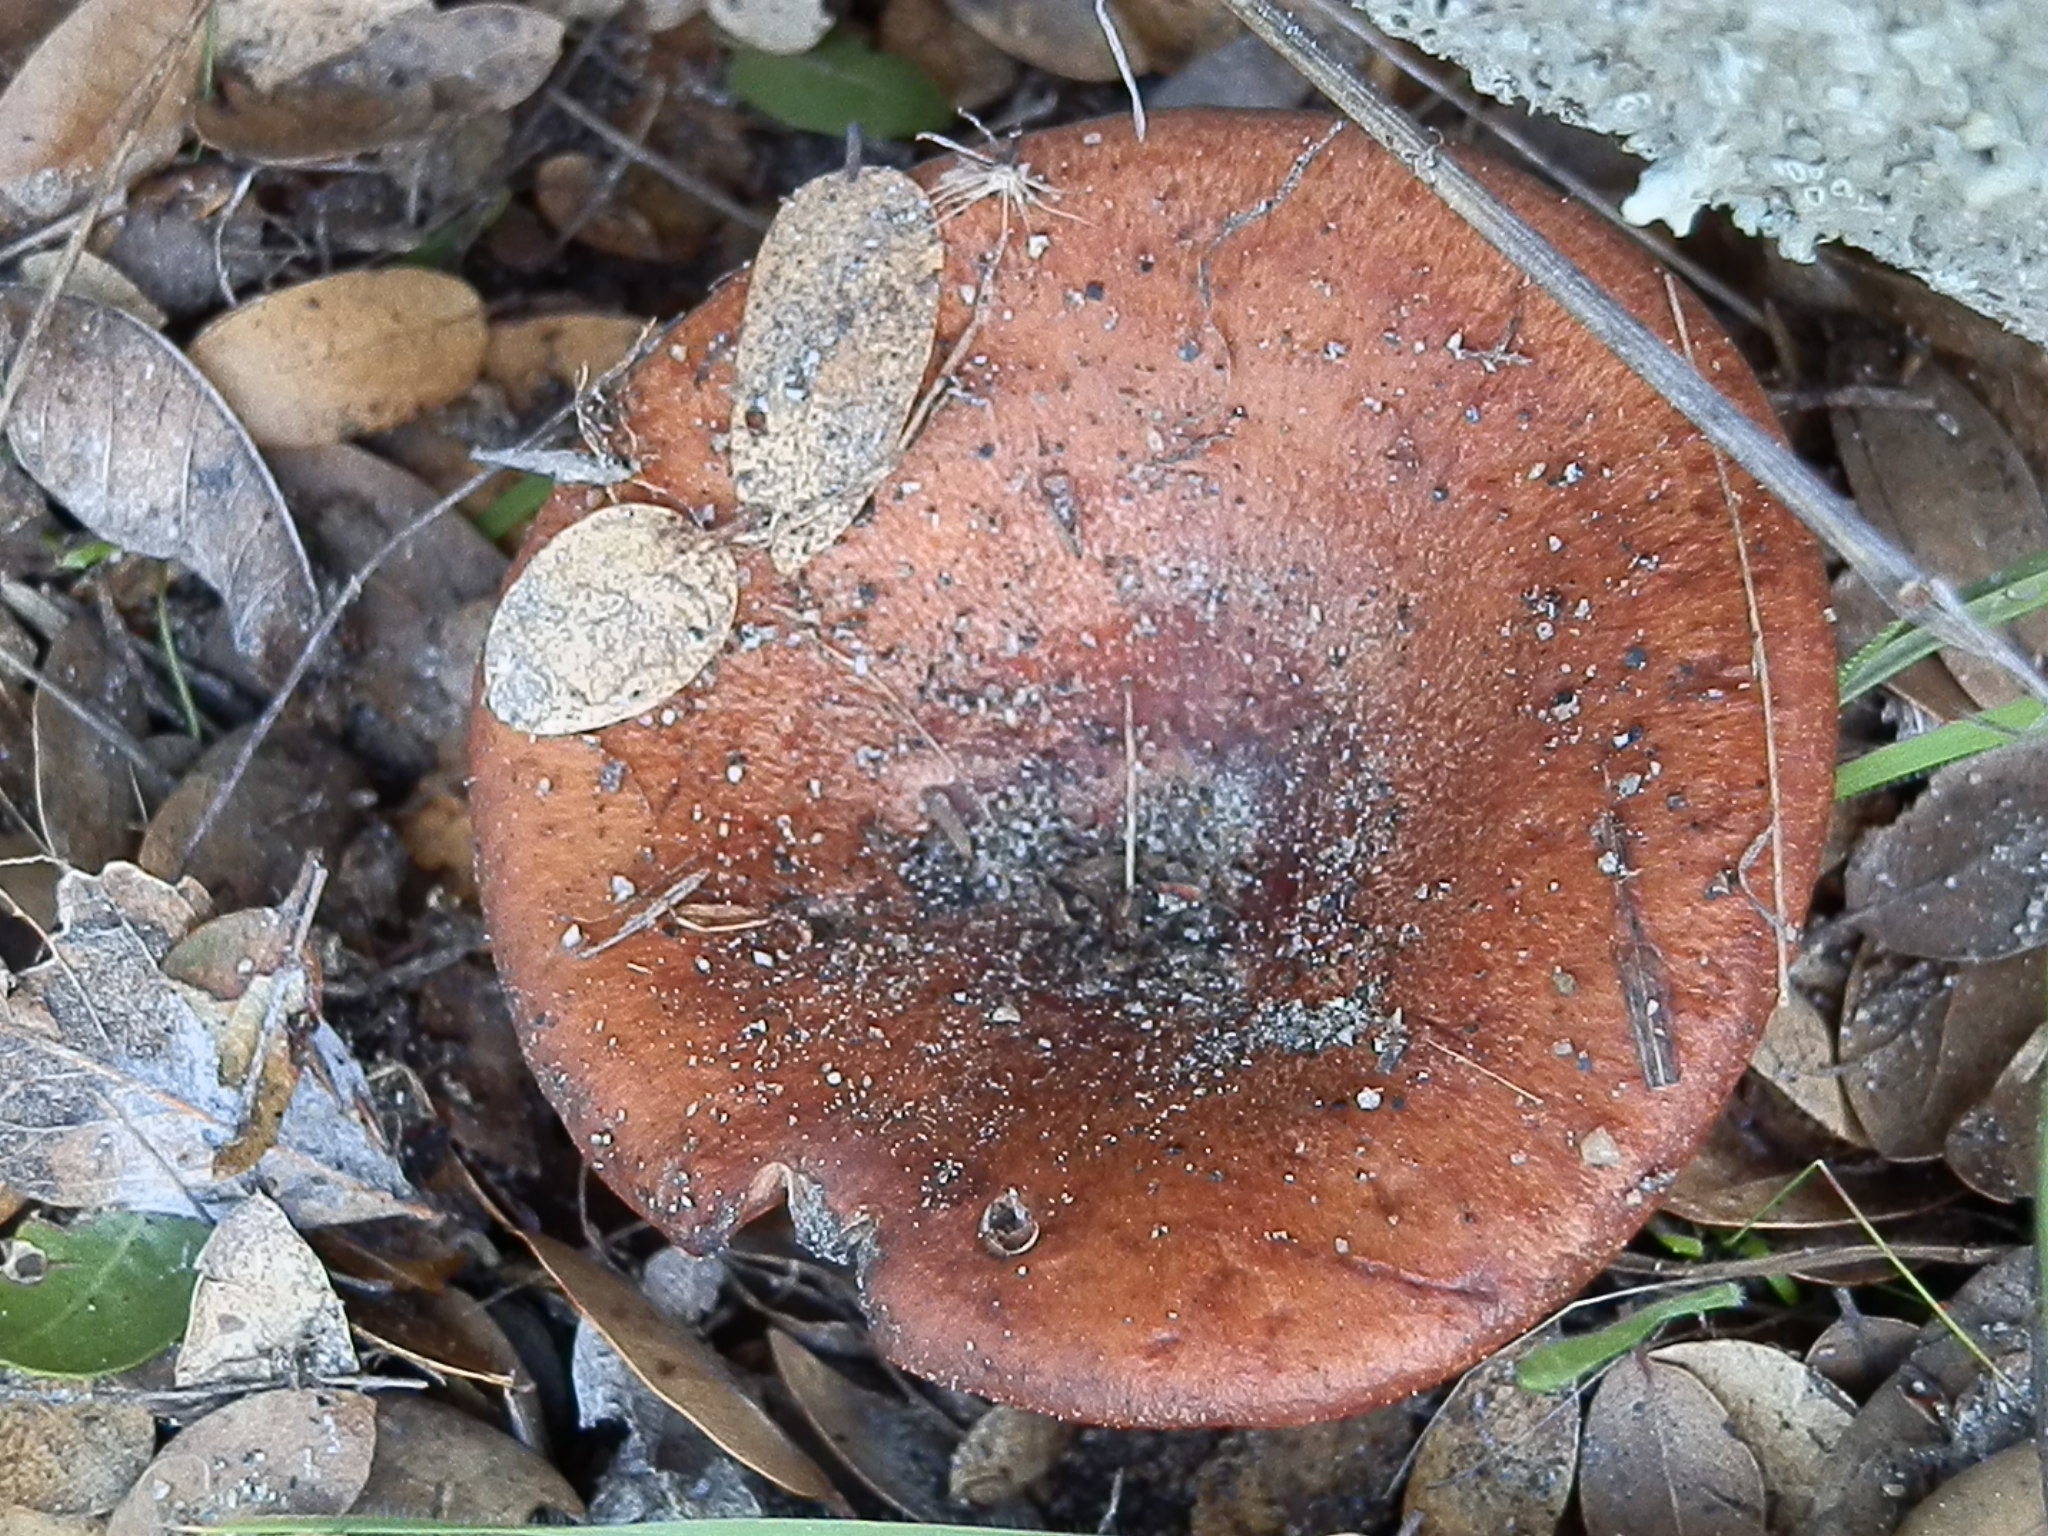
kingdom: Fungi
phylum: Basidiomycota
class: Agaricomycetes
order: Russulales
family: Russulaceae
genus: Lactarius
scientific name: Lactarius xanthogalactus
